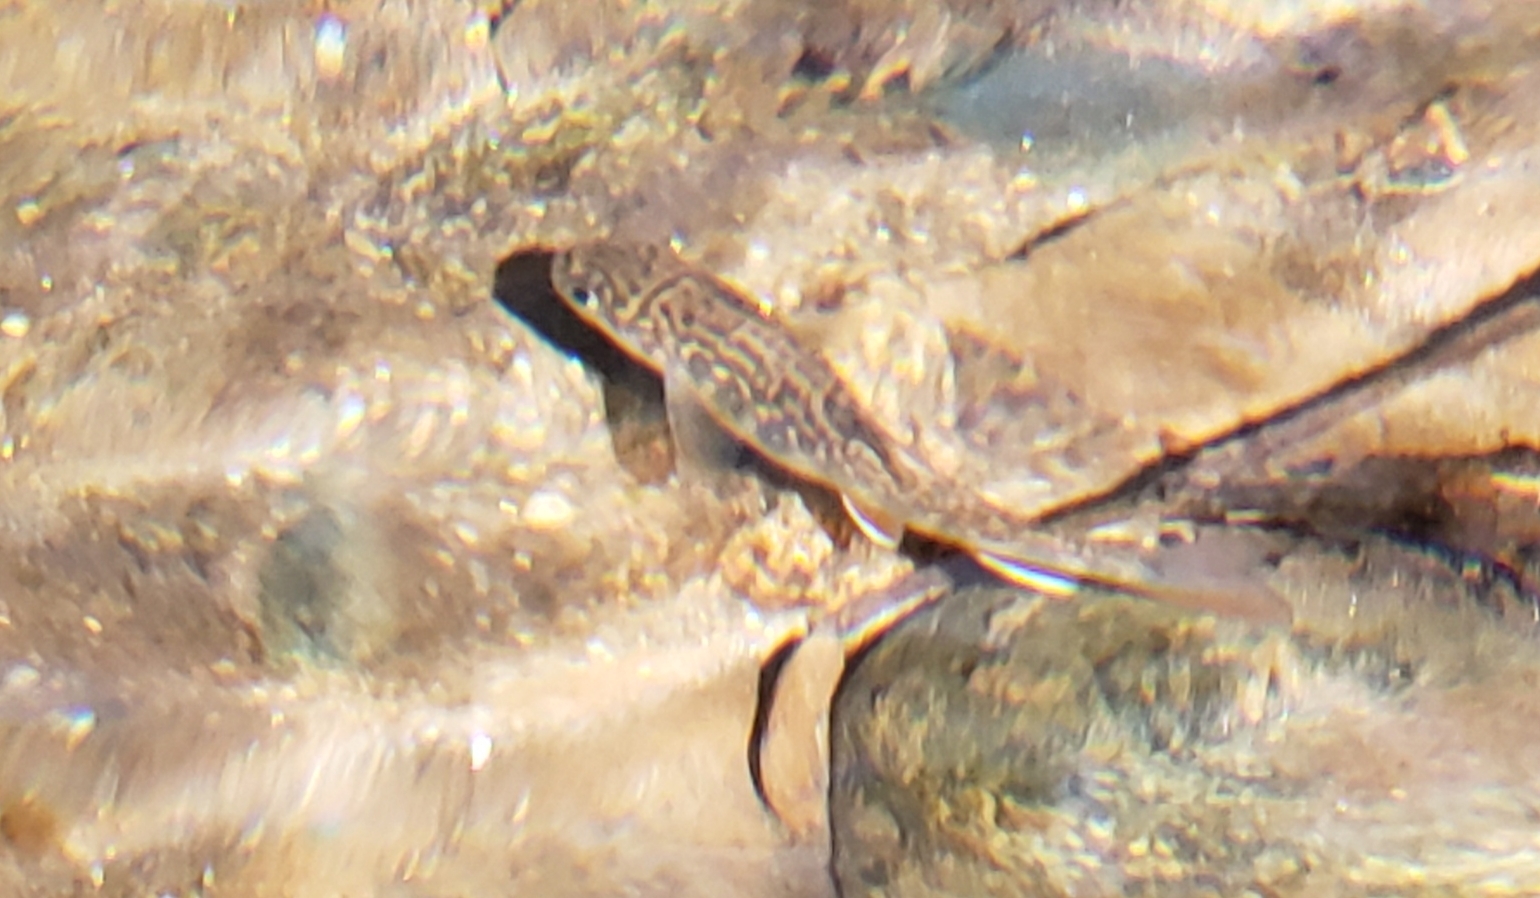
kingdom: Animalia
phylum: Chordata
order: Salmoniformes
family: Salmonidae
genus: Salvelinus
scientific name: Salvelinus fontinalis
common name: Brook trout
